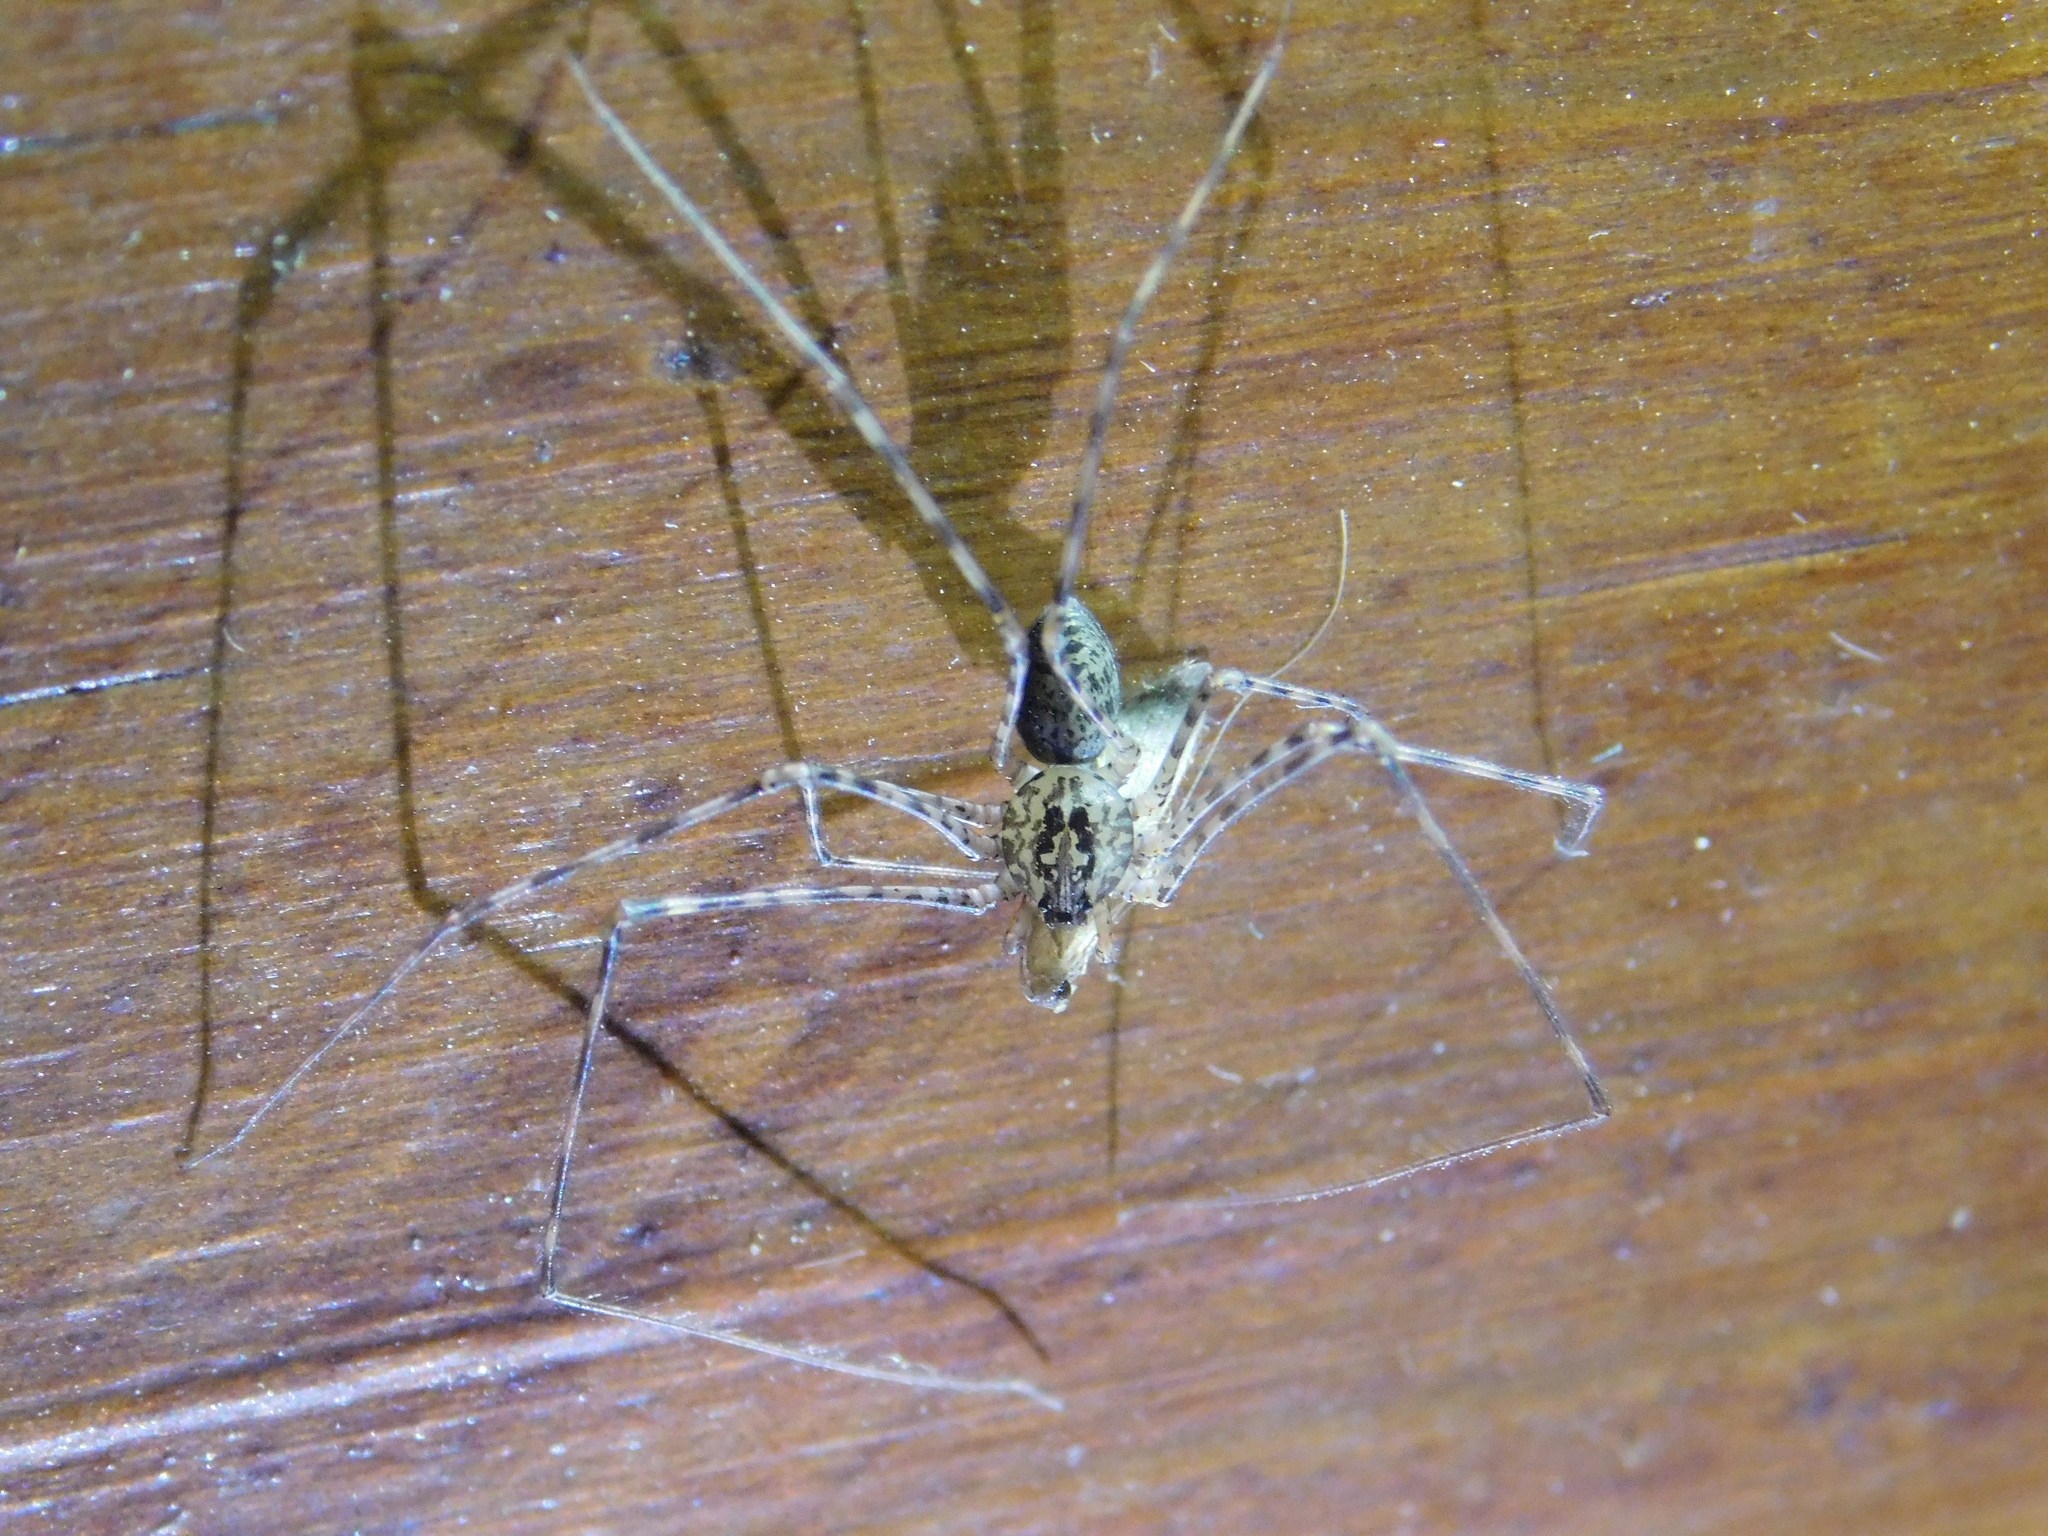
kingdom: Animalia
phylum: Arthropoda
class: Arachnida
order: Araneae
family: Scytodidae
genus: Scytodes
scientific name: Scytodes globula
